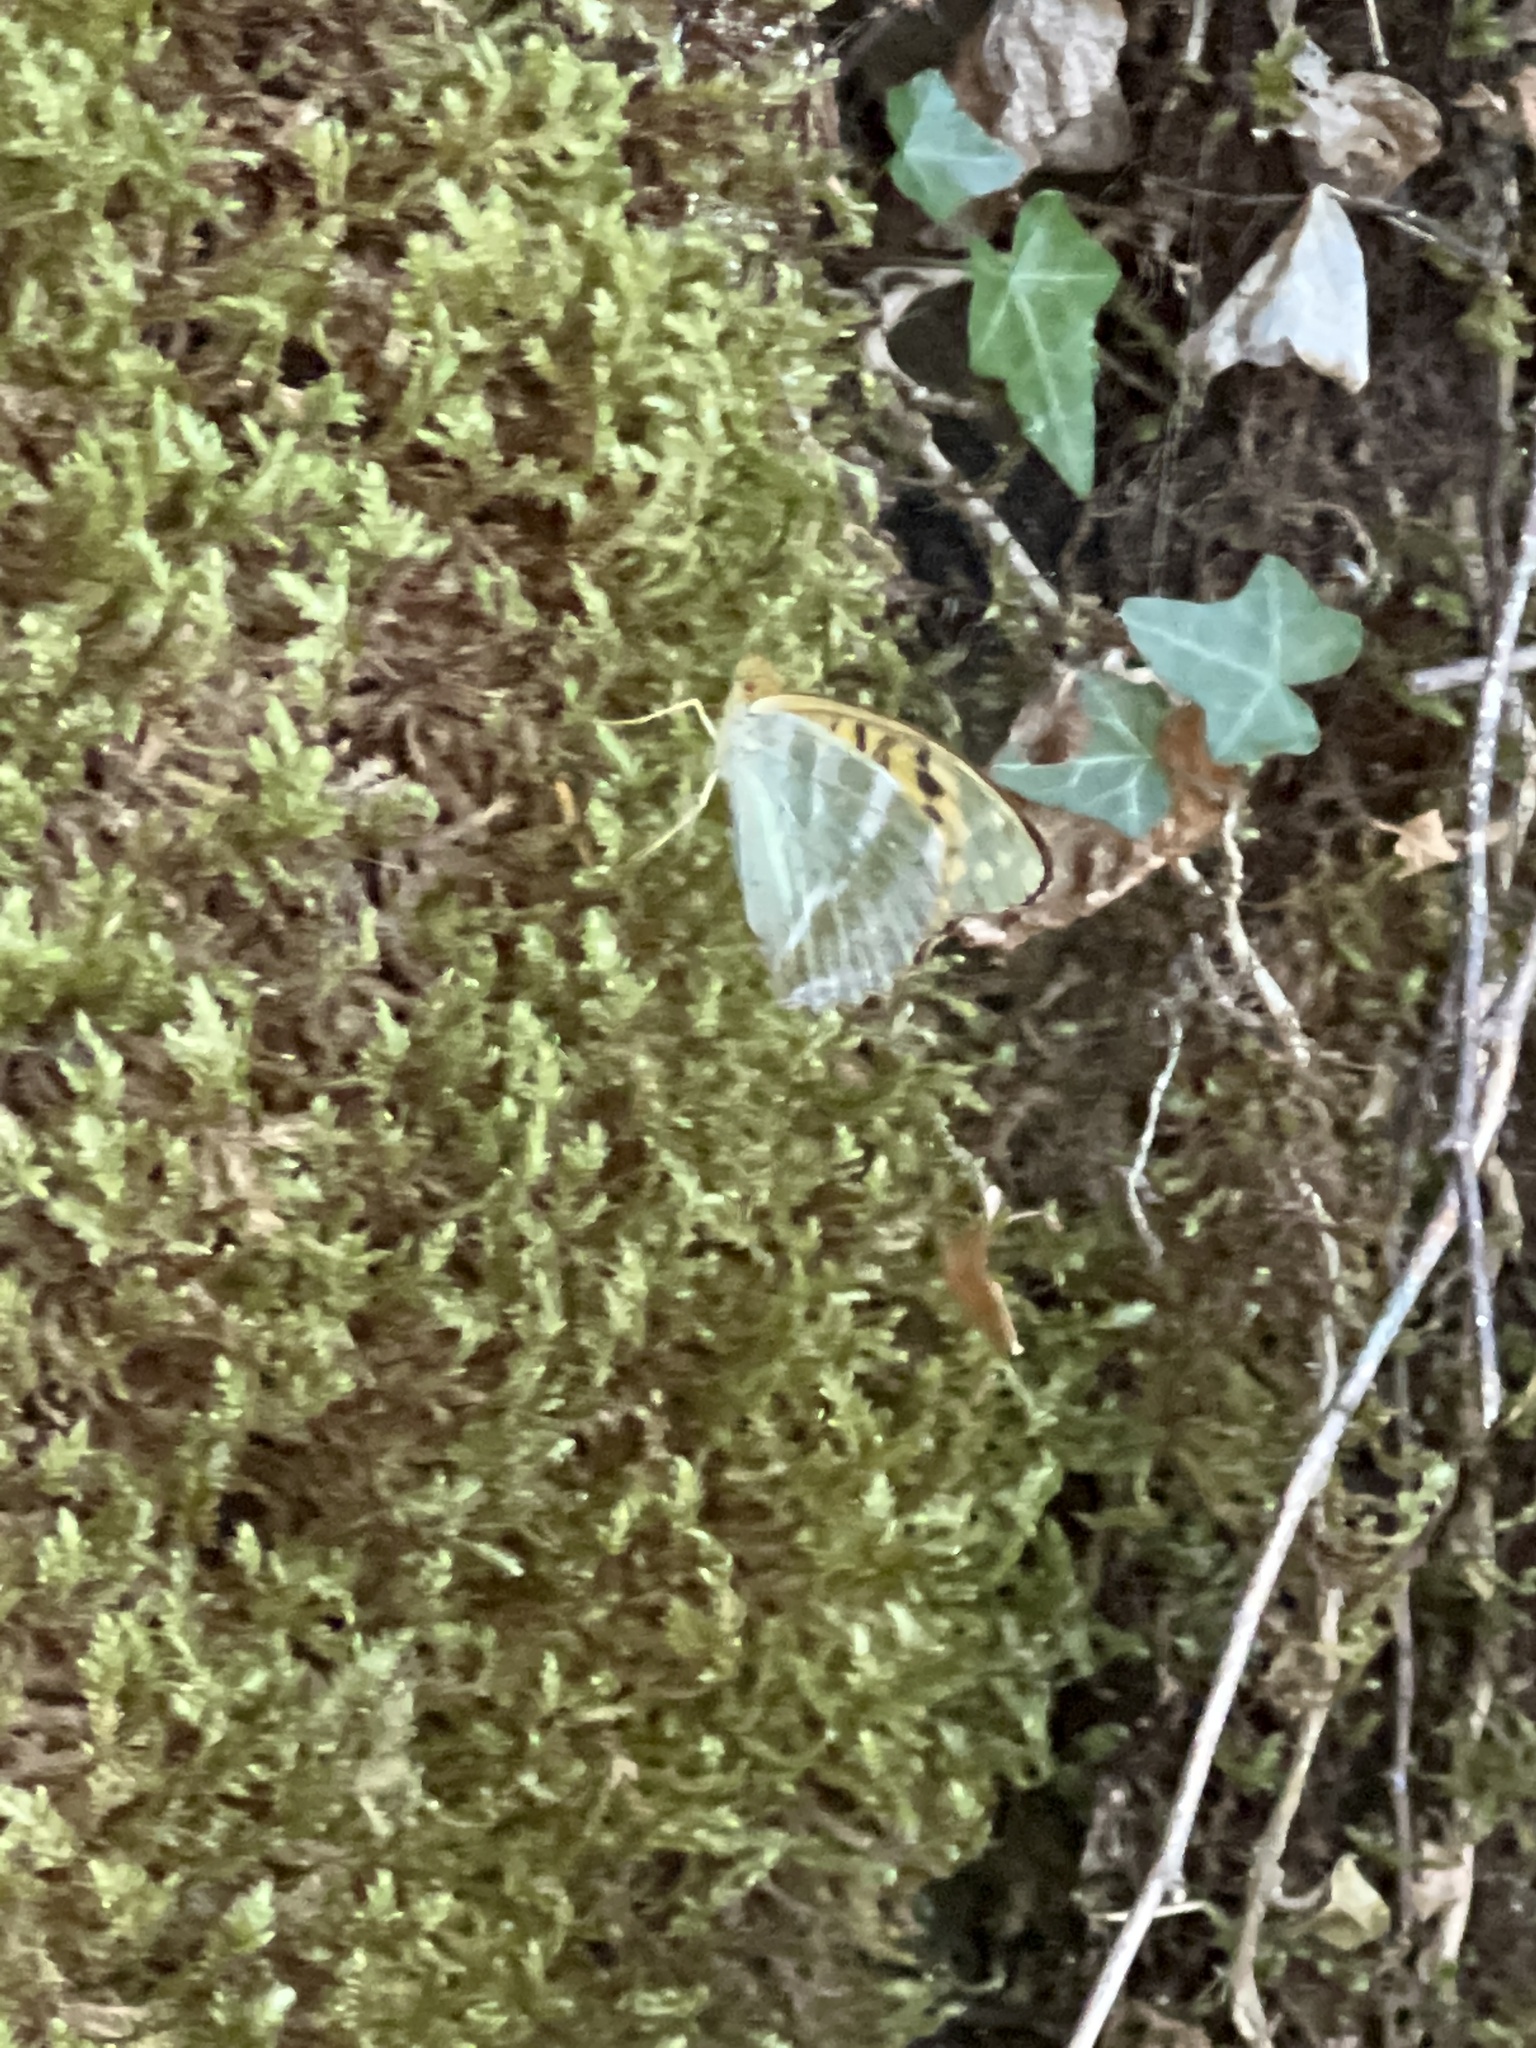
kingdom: Animalia
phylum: Arthropoda
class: Insecta
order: Lepidoptera
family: Nymphalidae
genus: Argynnis
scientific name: Argynnis paphia
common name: Silver-washed fritillary
